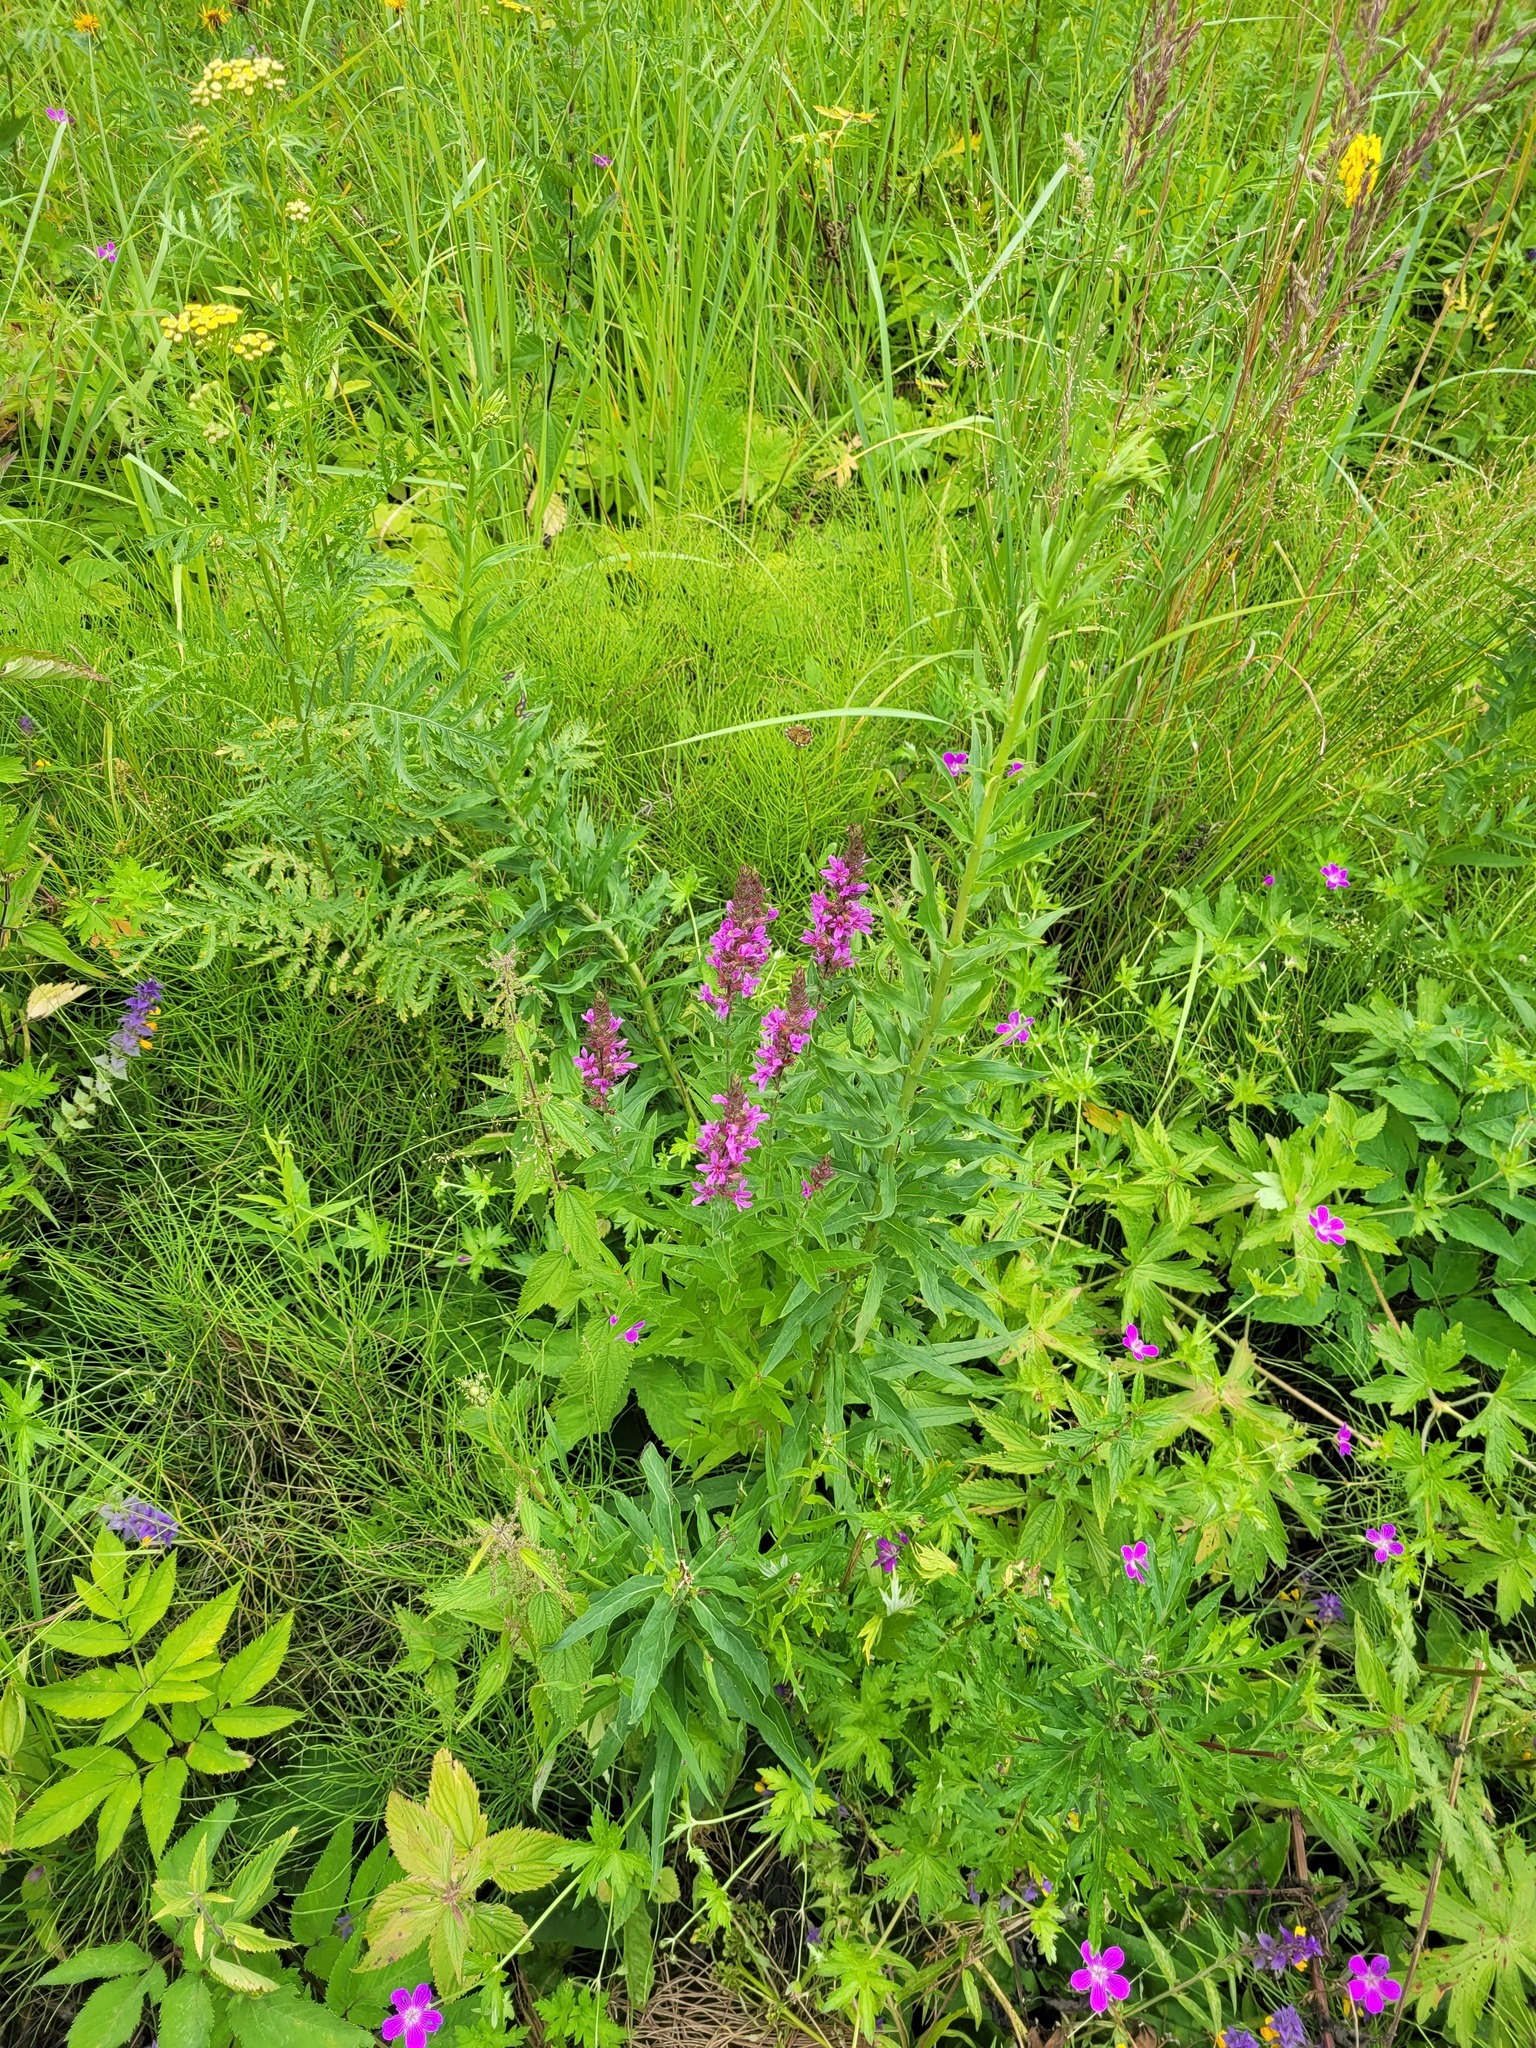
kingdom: Plantae
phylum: Tracheophyta
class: Magnoliopsida
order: Myrtales
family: Lythraceae
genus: Lythrum
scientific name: Lythrum salicaria
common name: Purple loosestrife
